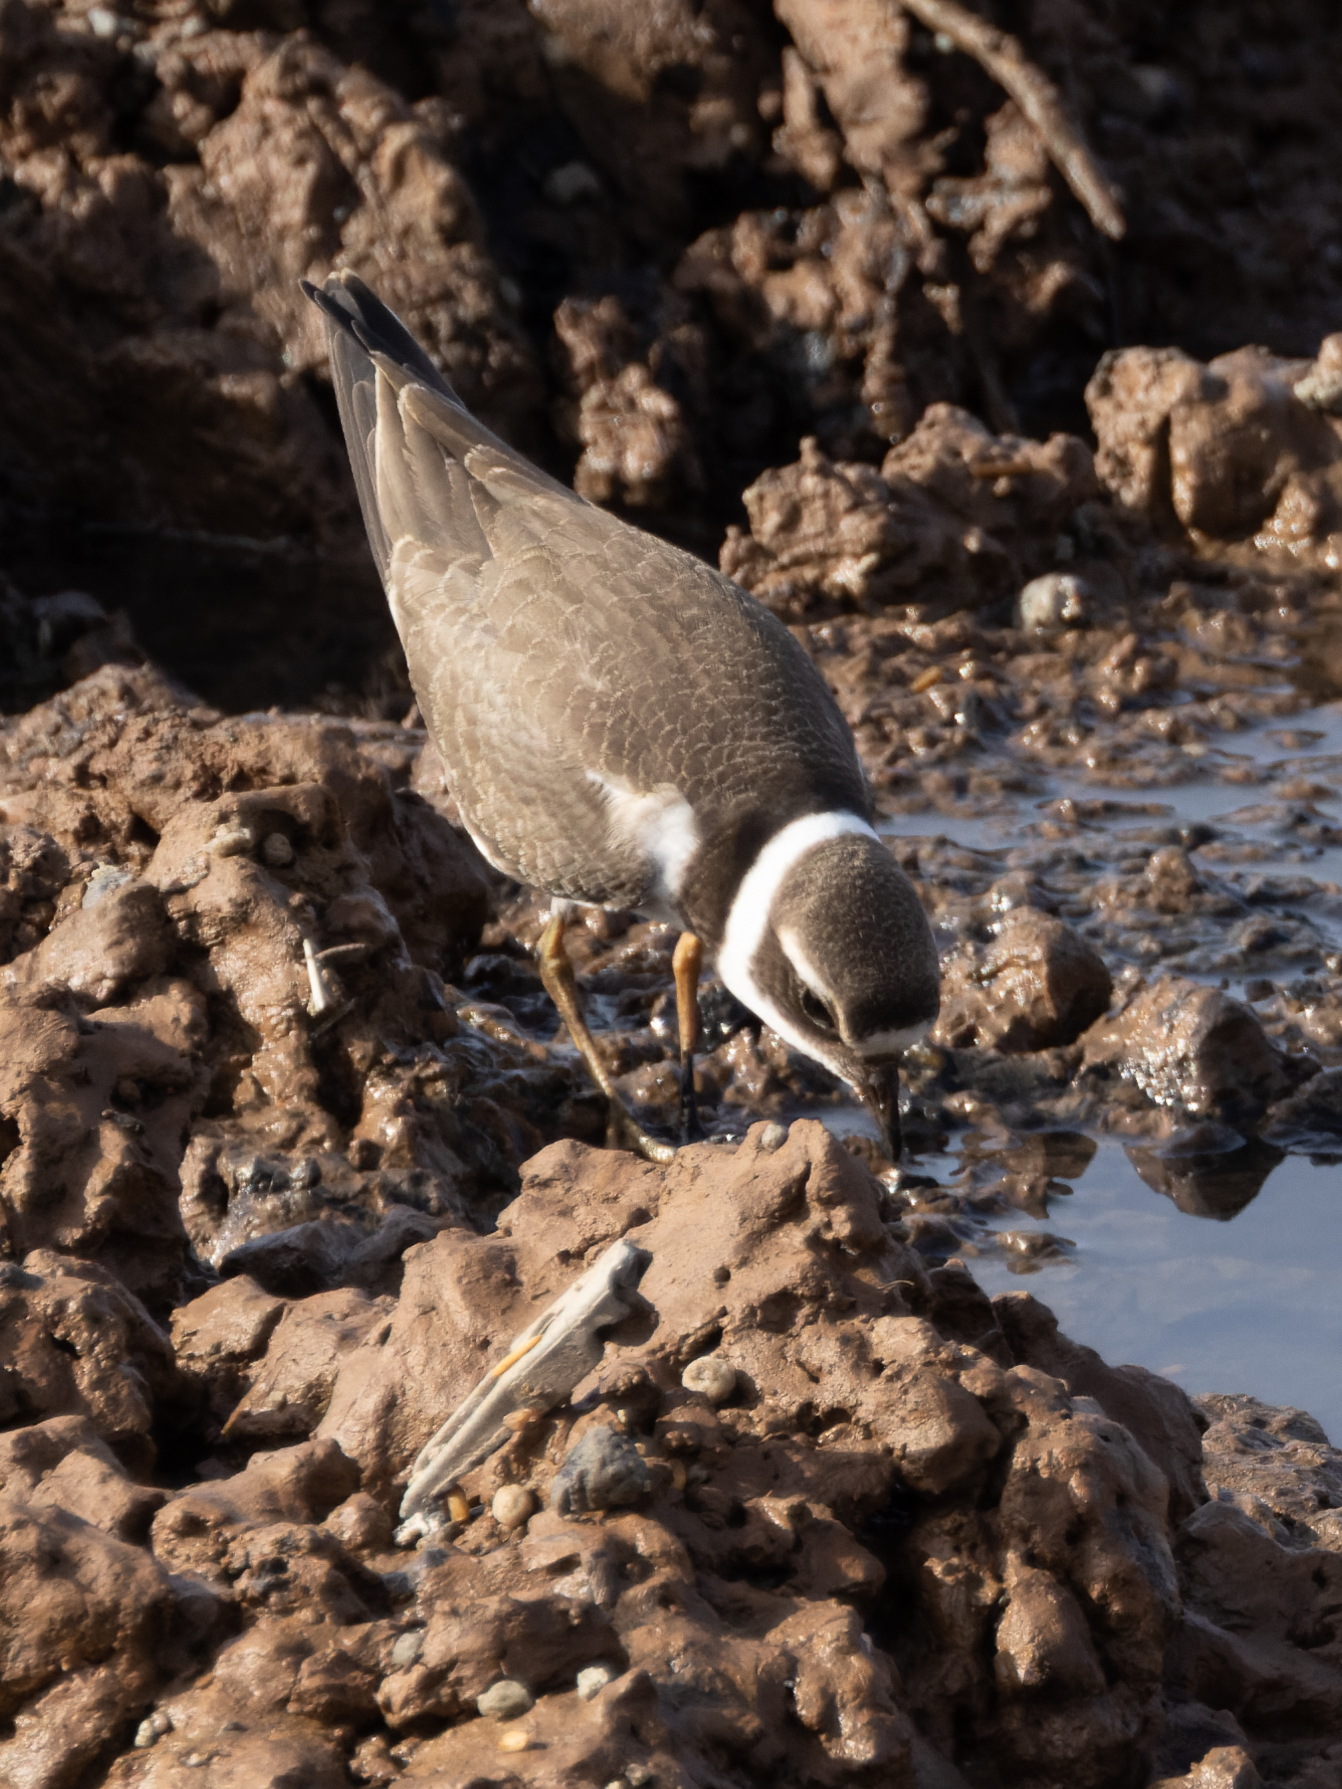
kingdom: Animalia
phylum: Chordata
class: Aves
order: Charadriiformes
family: Charadriidae
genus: Charadrius
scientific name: Charadrius hiaticula
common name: Common ringed plover
